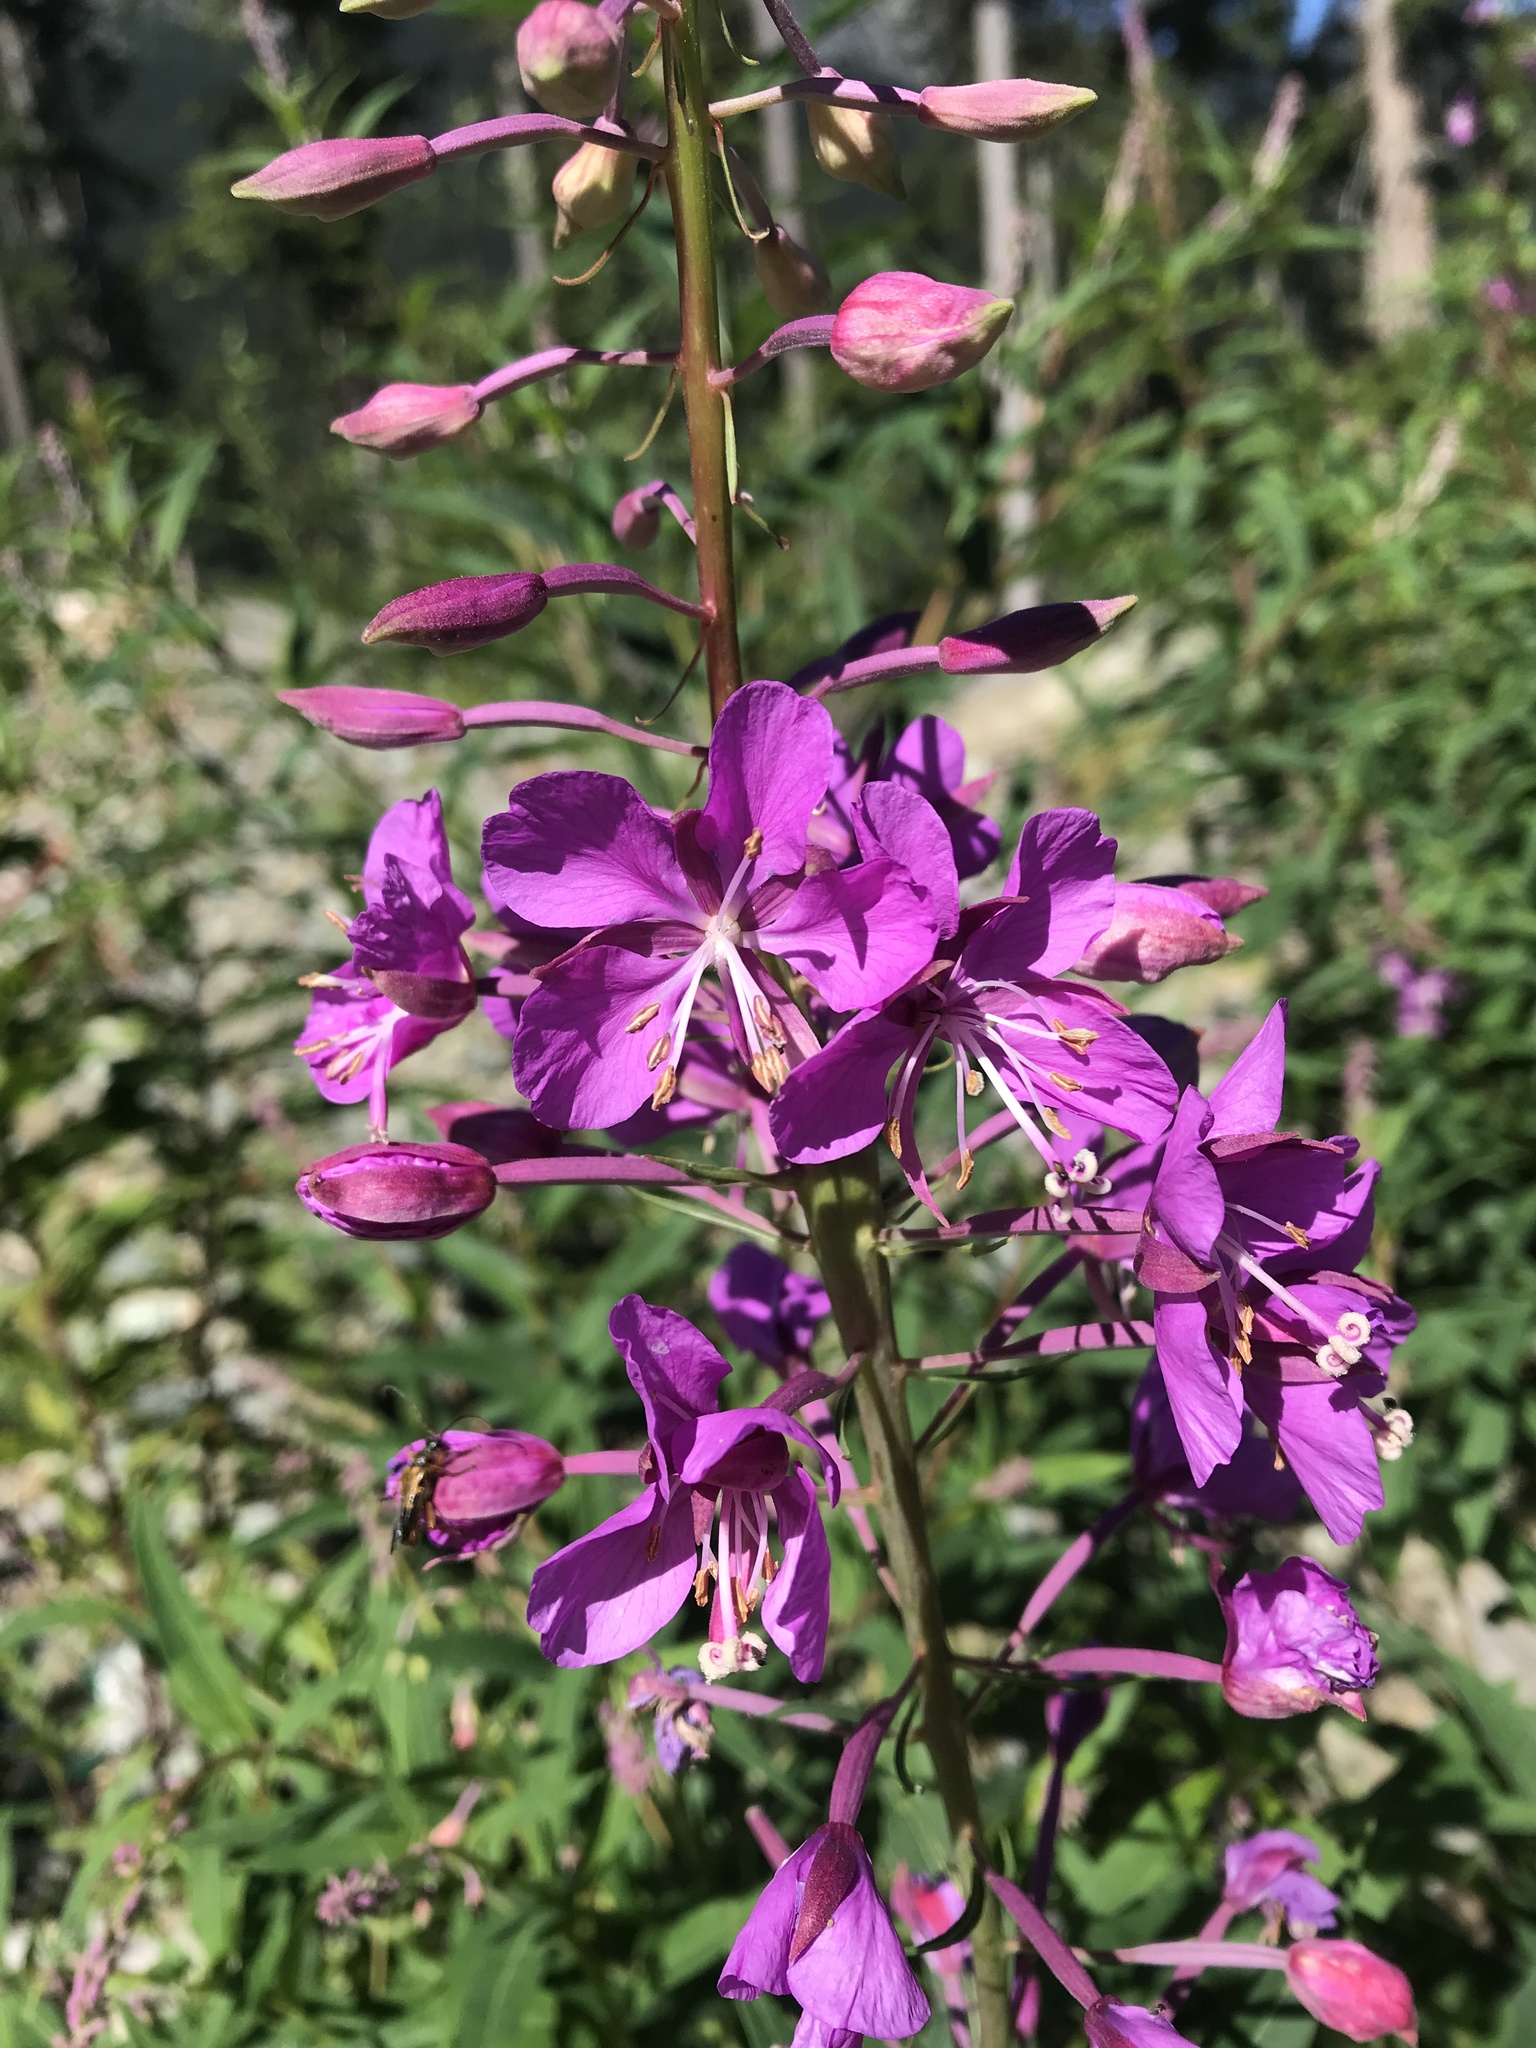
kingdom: Plantae
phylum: Tracheophyta
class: Magnoliopsida
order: Myrtales
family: Onagraceae
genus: Chamaenerion
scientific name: Chamaenerion angustifolium
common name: Fireweed
